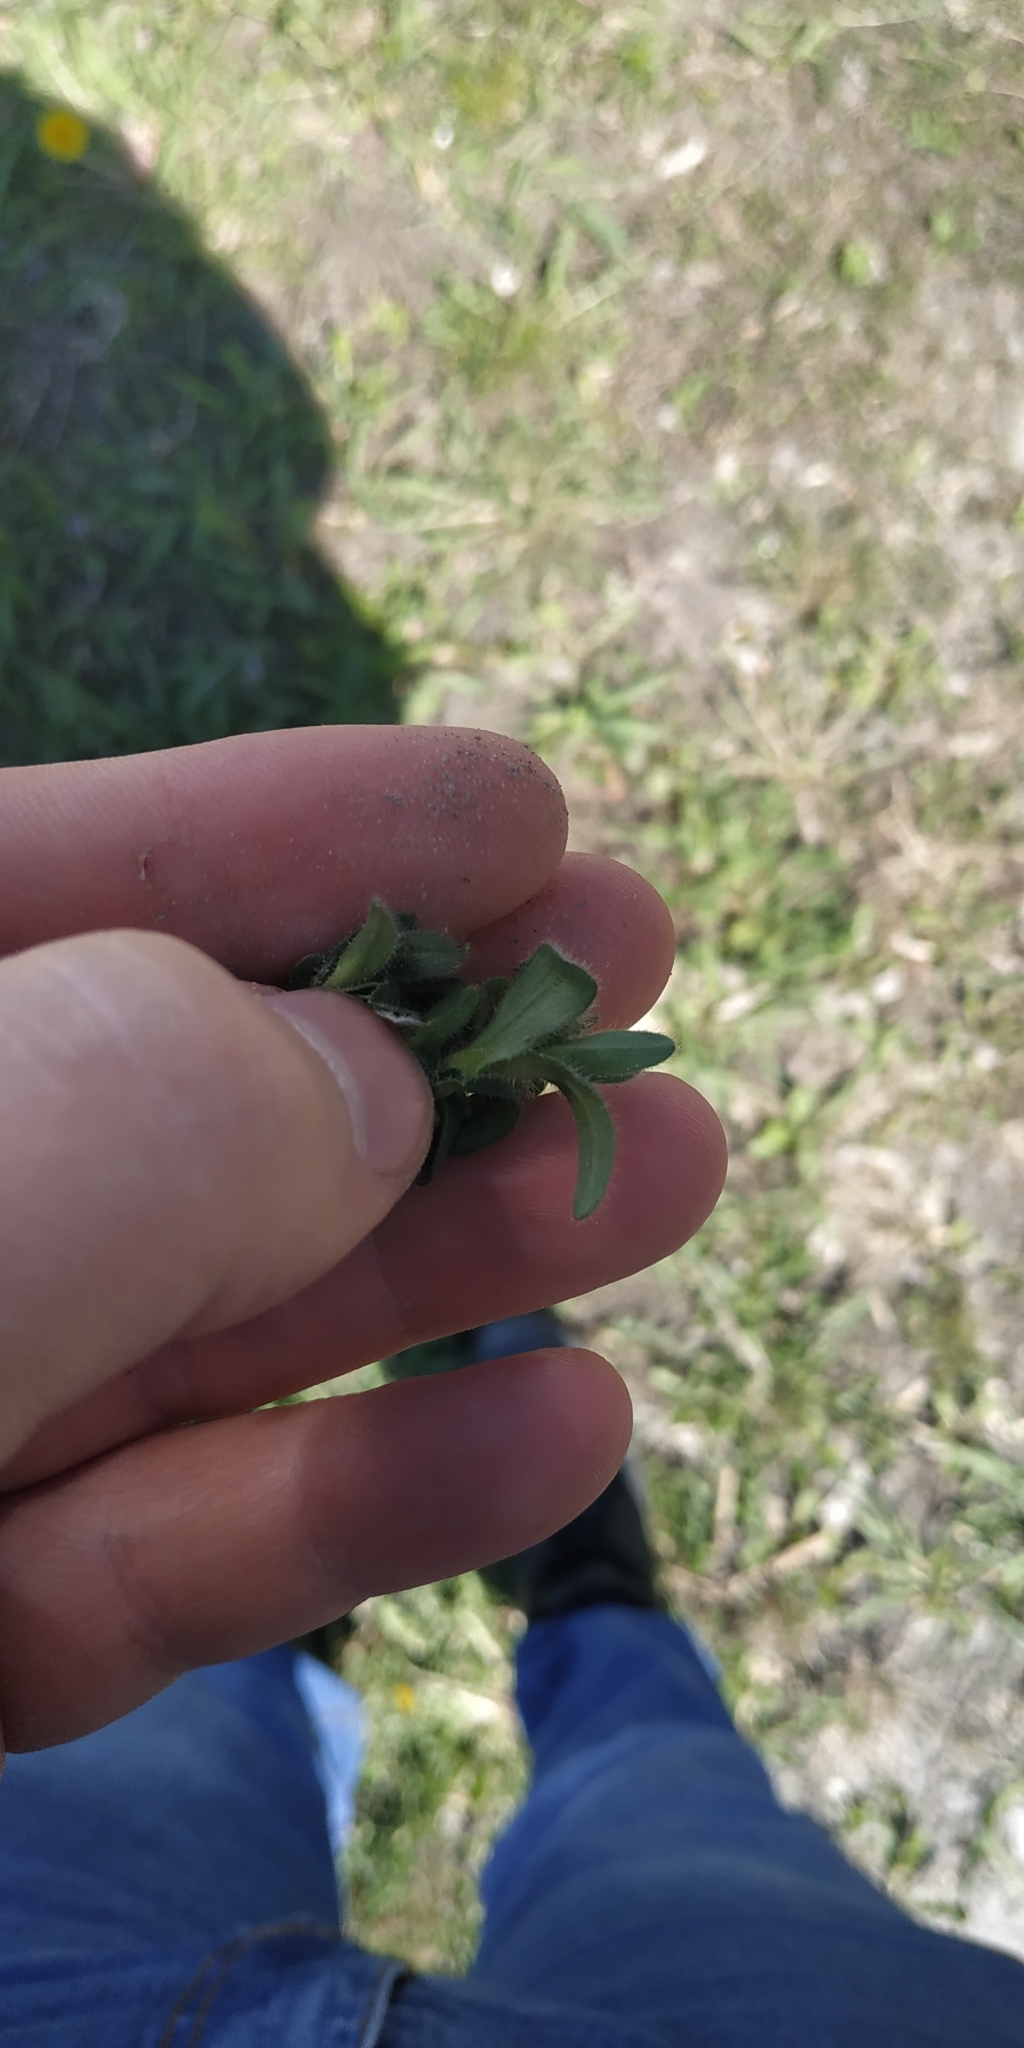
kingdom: Plantae
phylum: Tracheophyta
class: Magnoliopsida
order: Caryophyllales
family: Caryophyllaceae
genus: Cerastium
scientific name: Cerastium holosteoides
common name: Big chickweed
